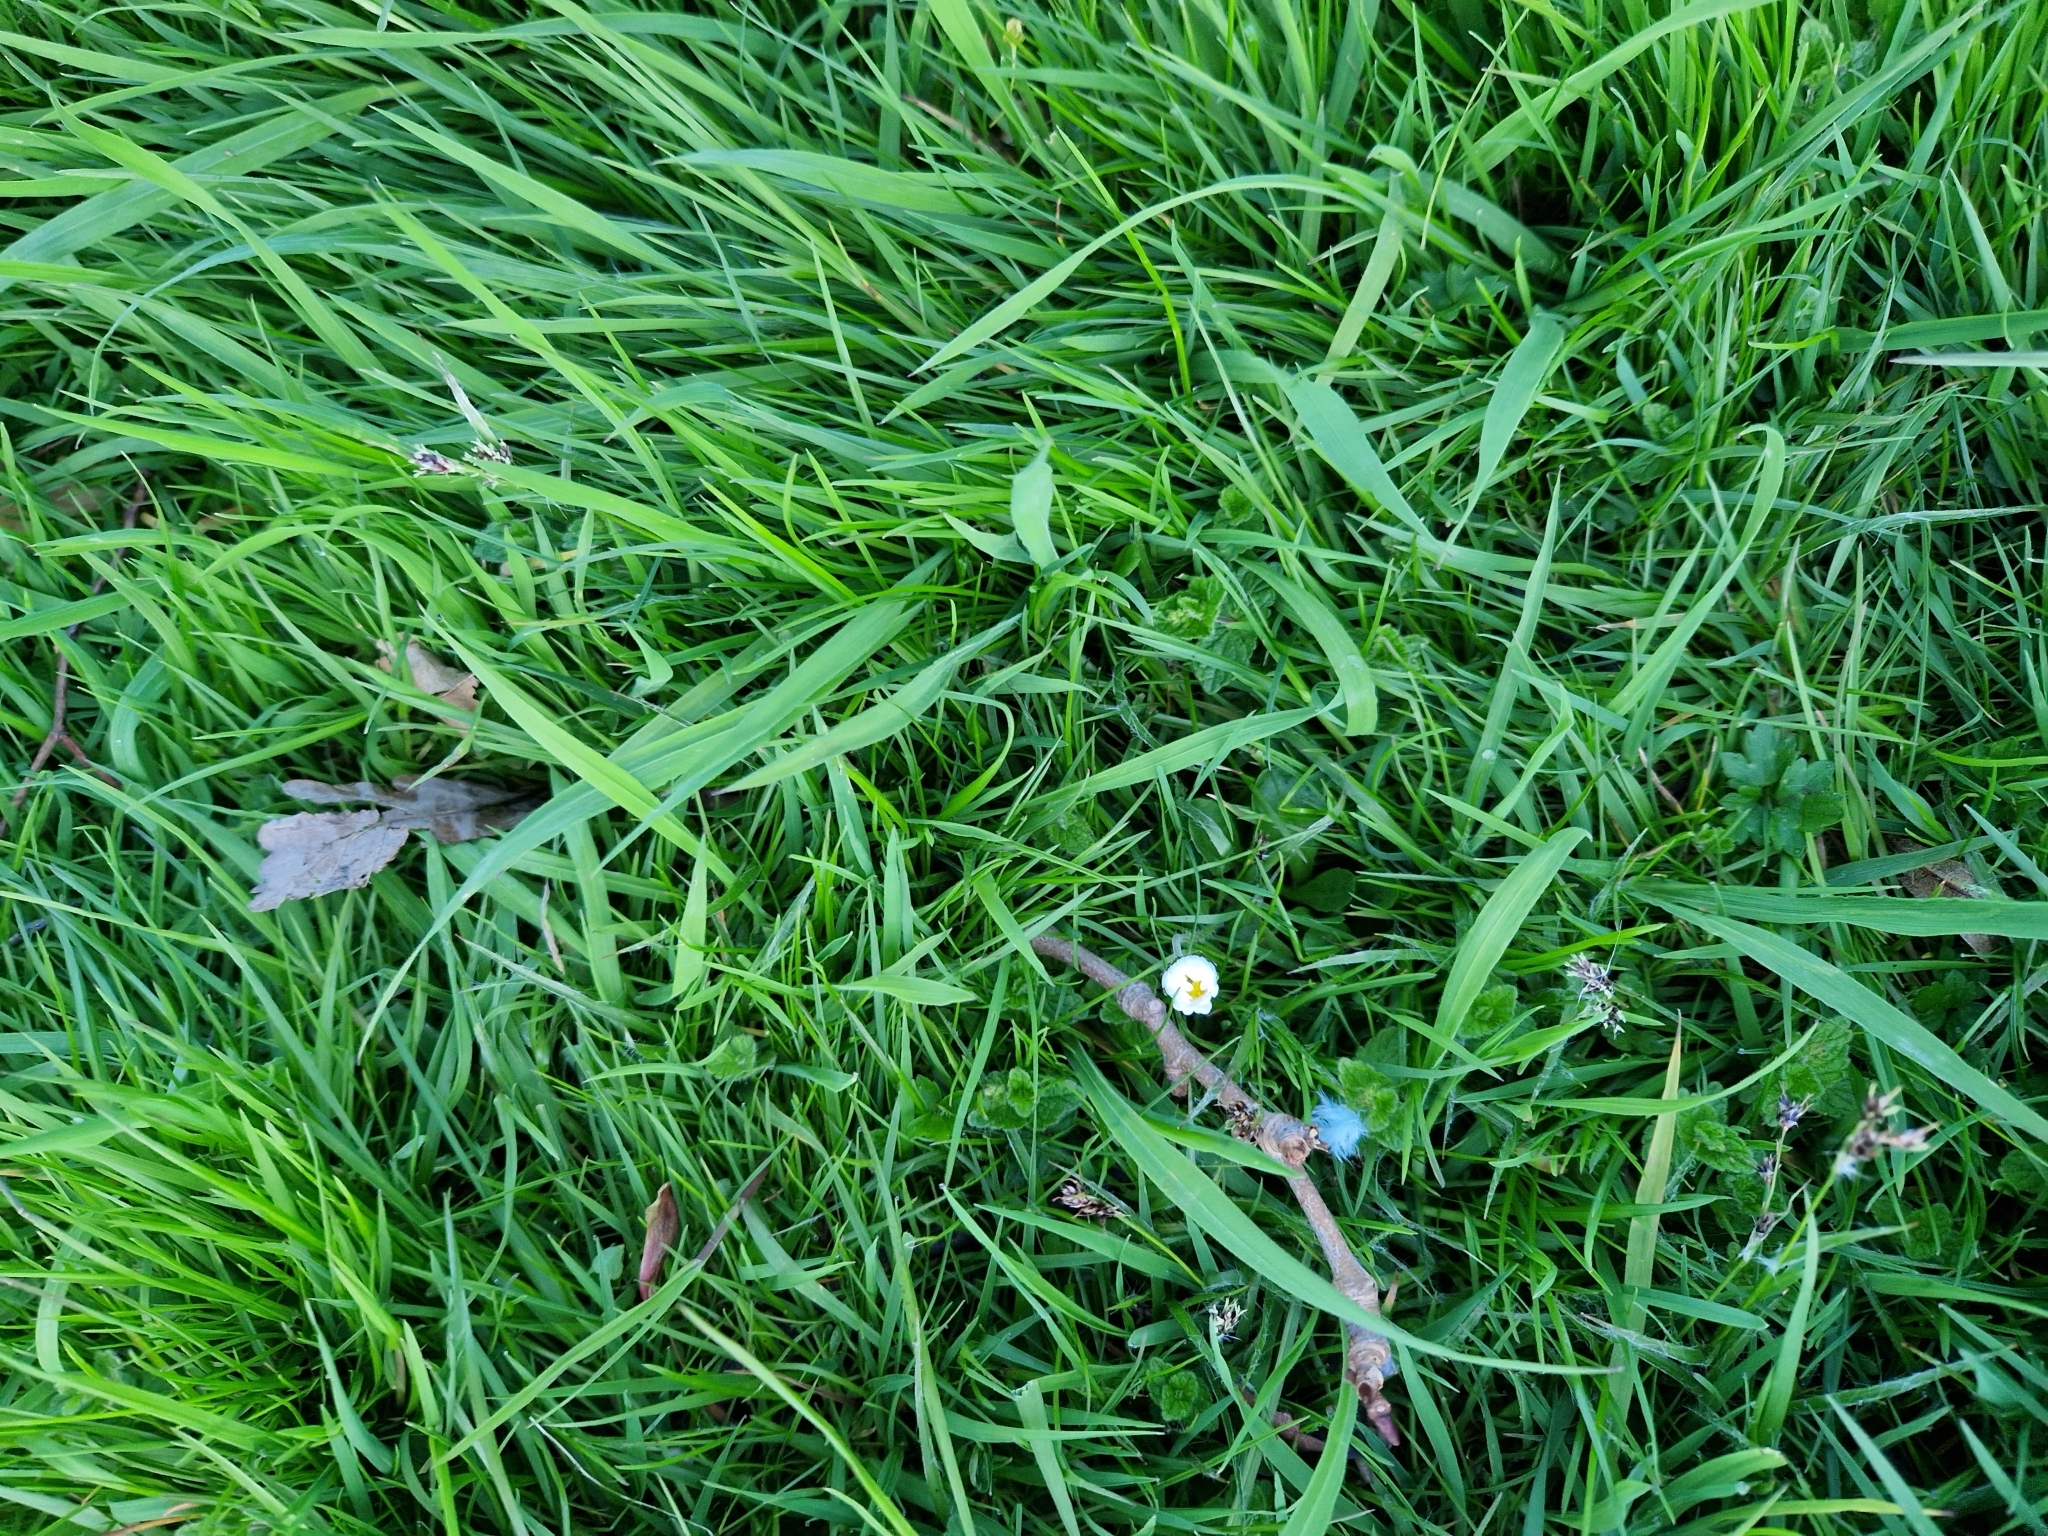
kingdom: Plantae
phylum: Tracheophyta
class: Magnoliopsida
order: Asterales
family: Asteraceae
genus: Bellis
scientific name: Bellis perennis
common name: Lawndaisy
